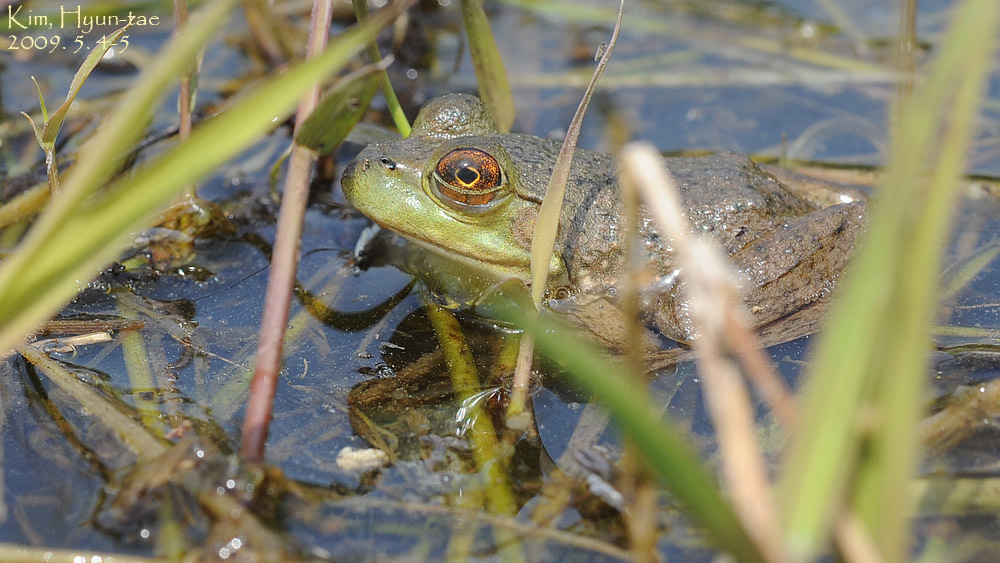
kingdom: Animalia
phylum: Chordata
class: Amphibia
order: Anura
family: Ranidae
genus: Lithobates
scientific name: Lithobates catesbeianus
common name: American bullfrog
